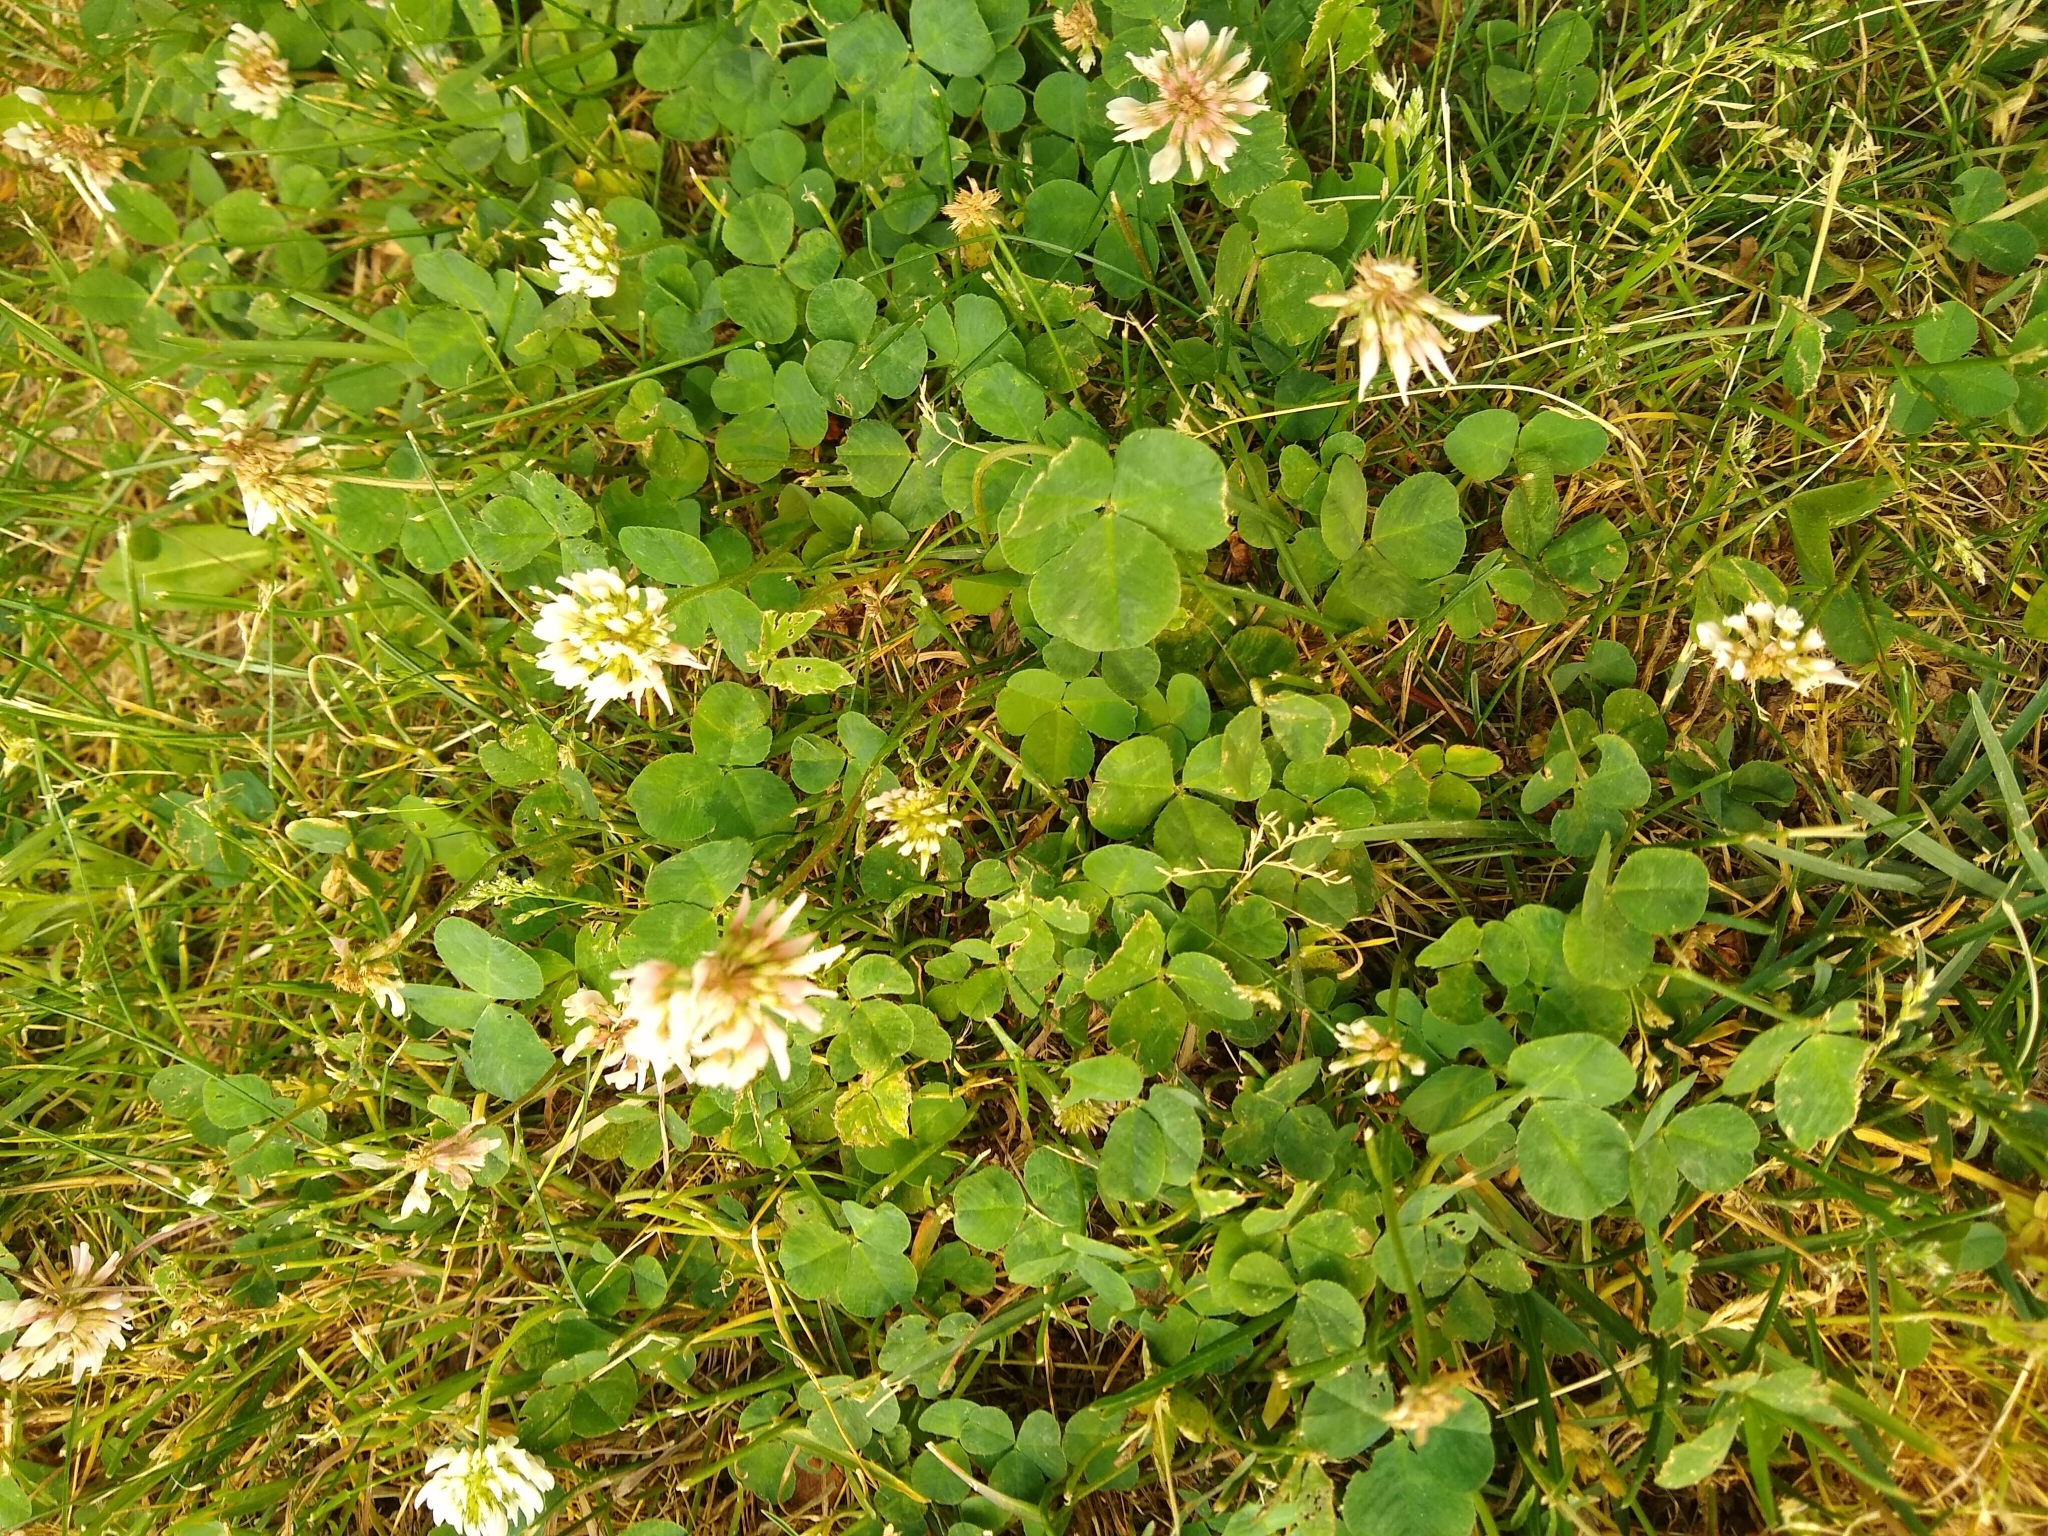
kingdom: Plantae
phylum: Tracheophyta
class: Magnoliopsida
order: Fabales
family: Fabaceae
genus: Trifolium
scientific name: Trifolium repens
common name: White clover
